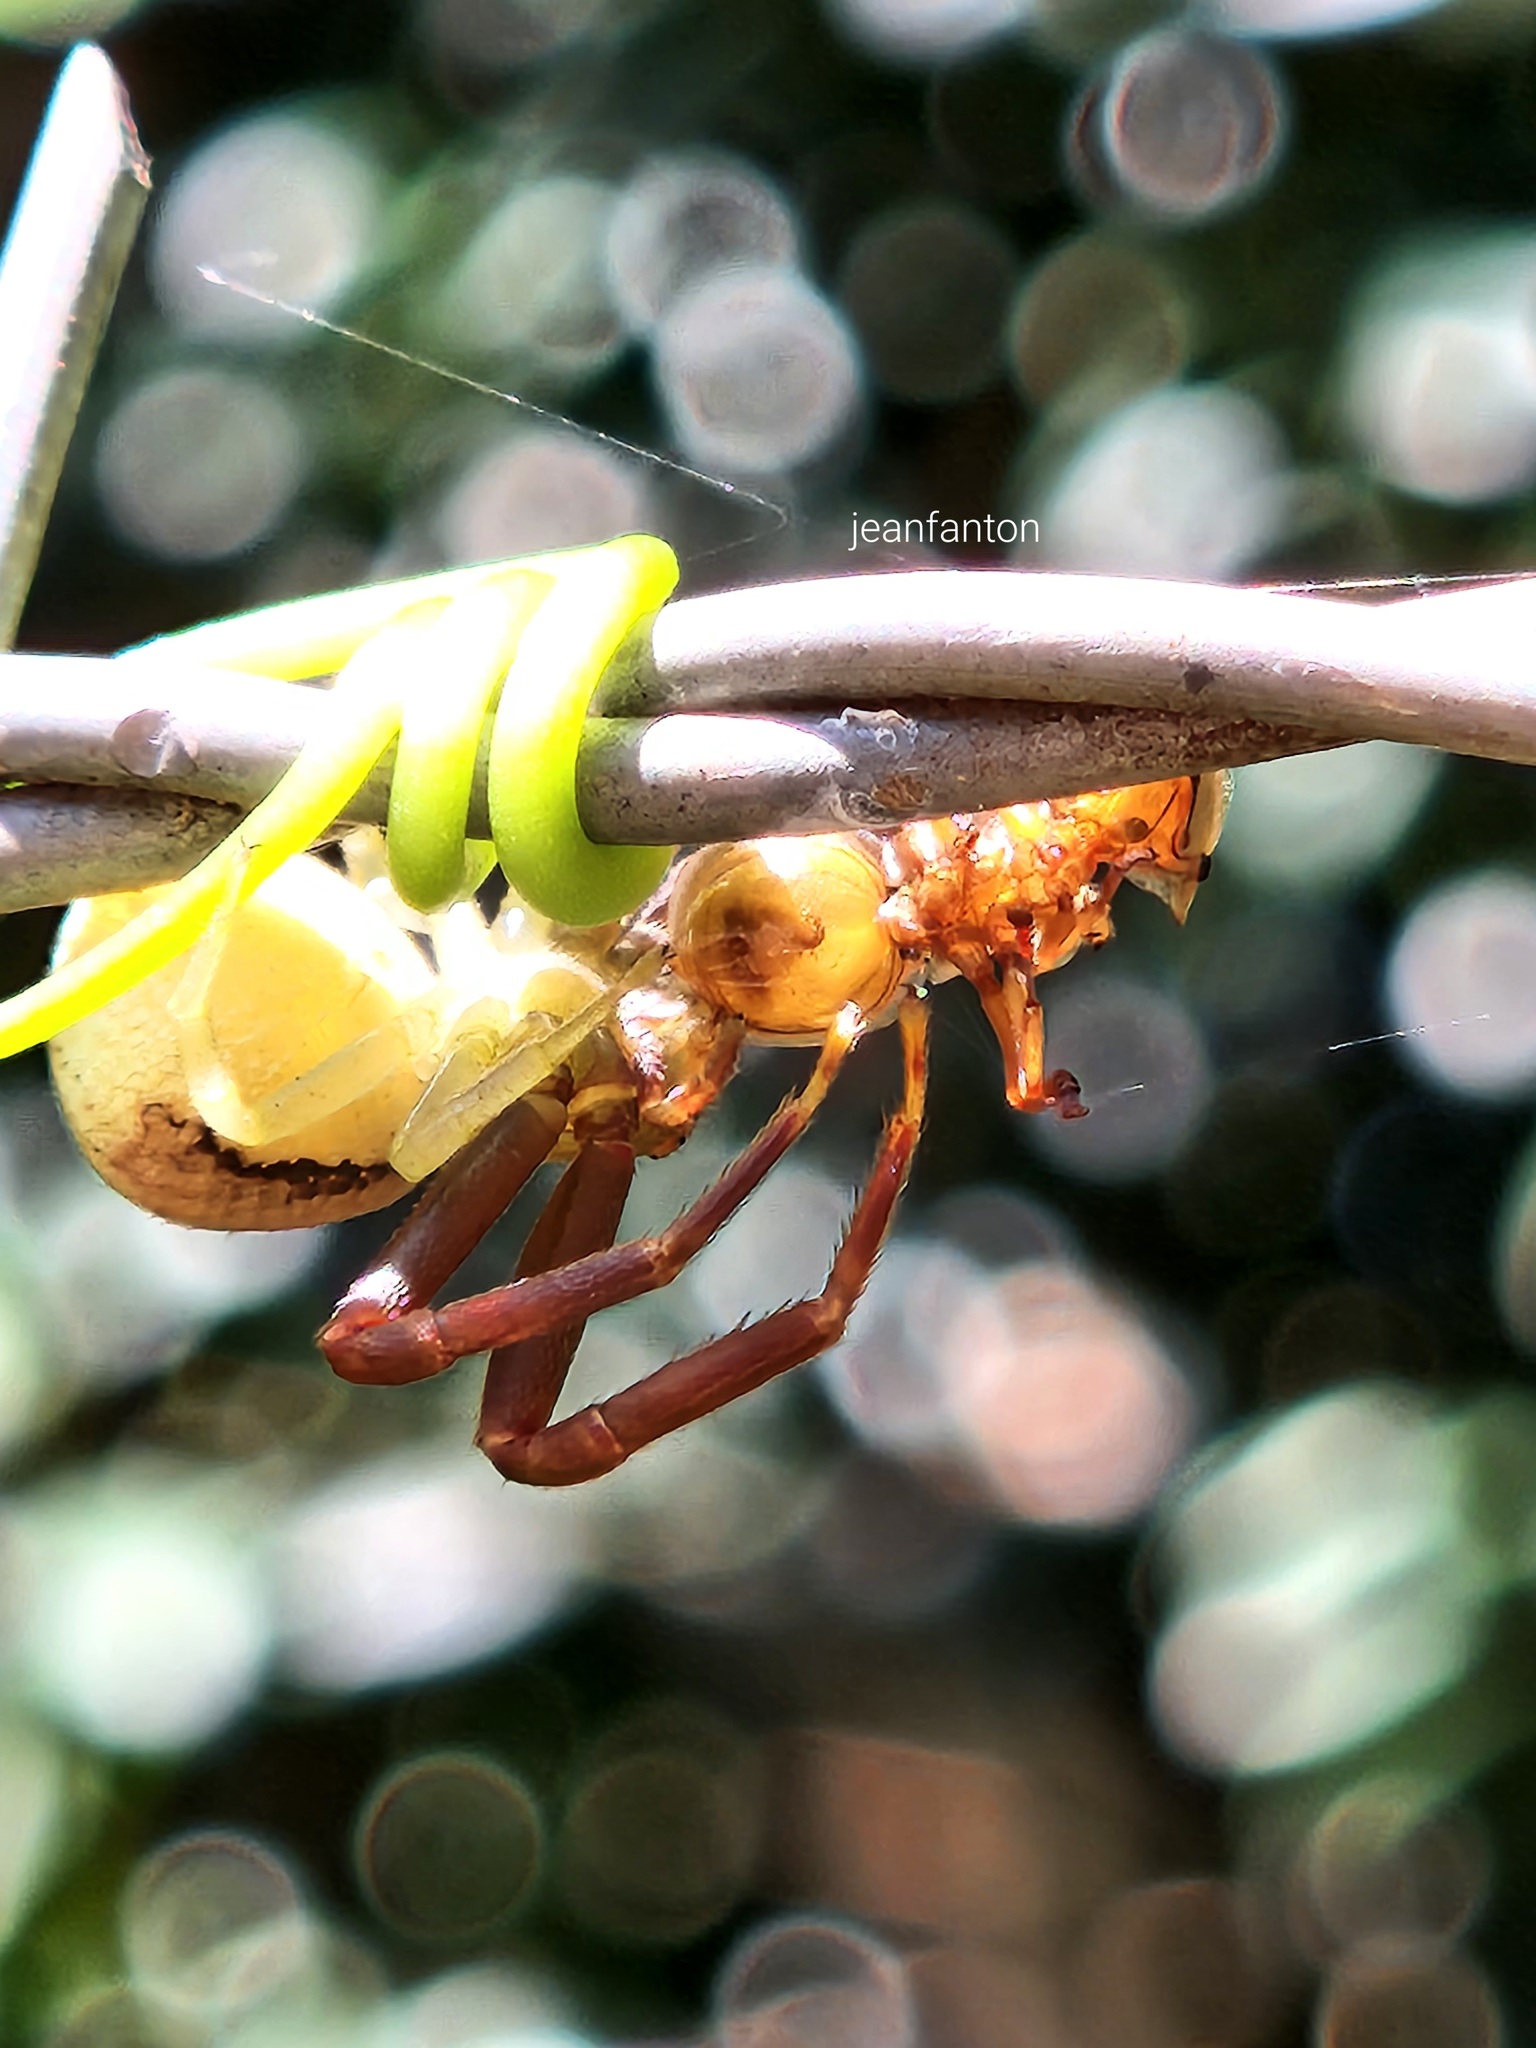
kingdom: Animalia
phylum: Arthropoda
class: Arachnida
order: Araneae
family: Thomisidae
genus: Runcinioides
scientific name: Runcinioides litteratus
